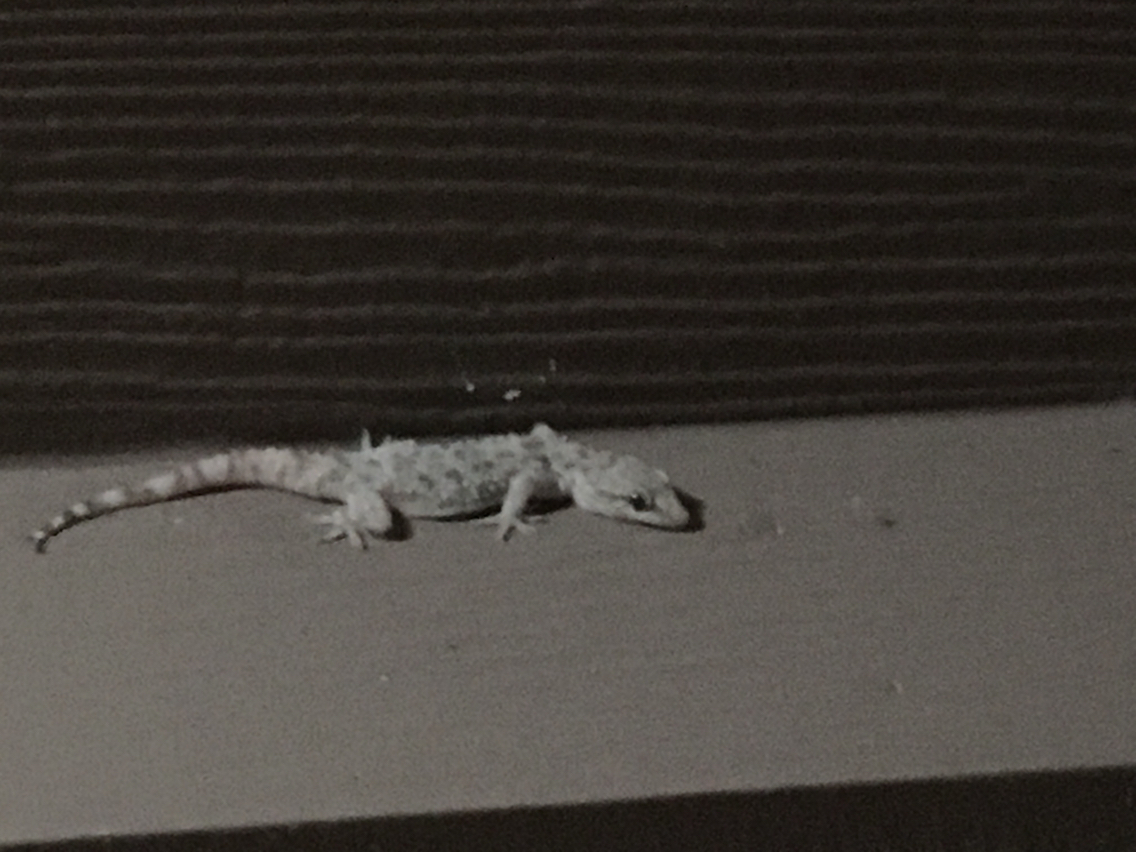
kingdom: Animalia
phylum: Chordata
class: Squamata
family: Gekkonidae
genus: Hemidactylus
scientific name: Hemidactylus turcicus
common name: Turkish gecko
